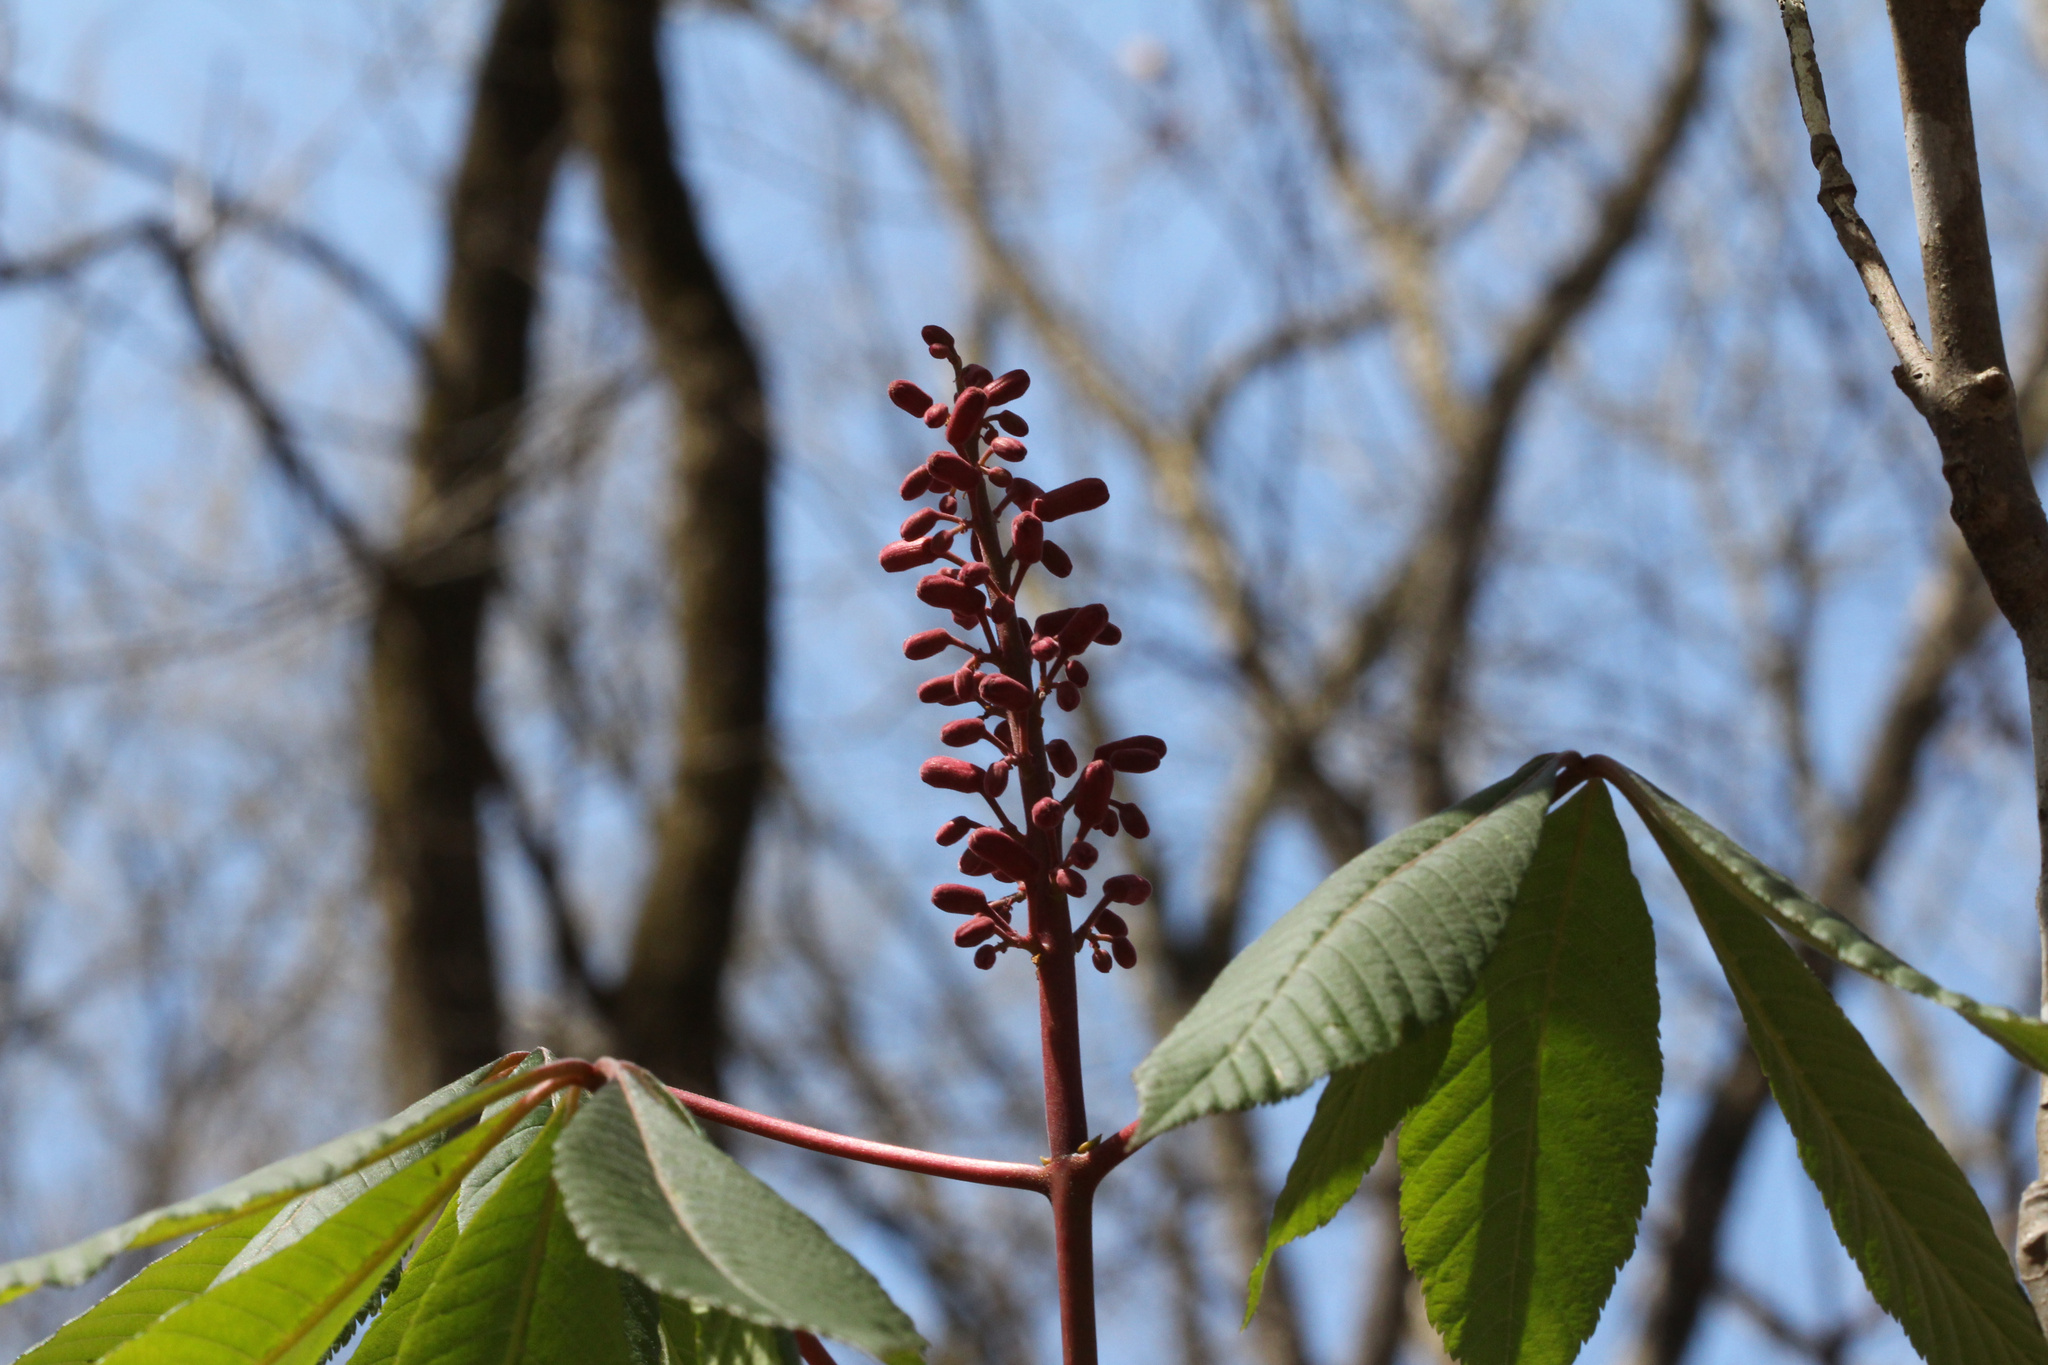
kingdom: Plantae
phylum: Tracheophyta
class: Magnoliopsida
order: Sapindales
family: Sapindaceae
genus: Aesculus
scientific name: Aesculus pavia
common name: Red buckeye
